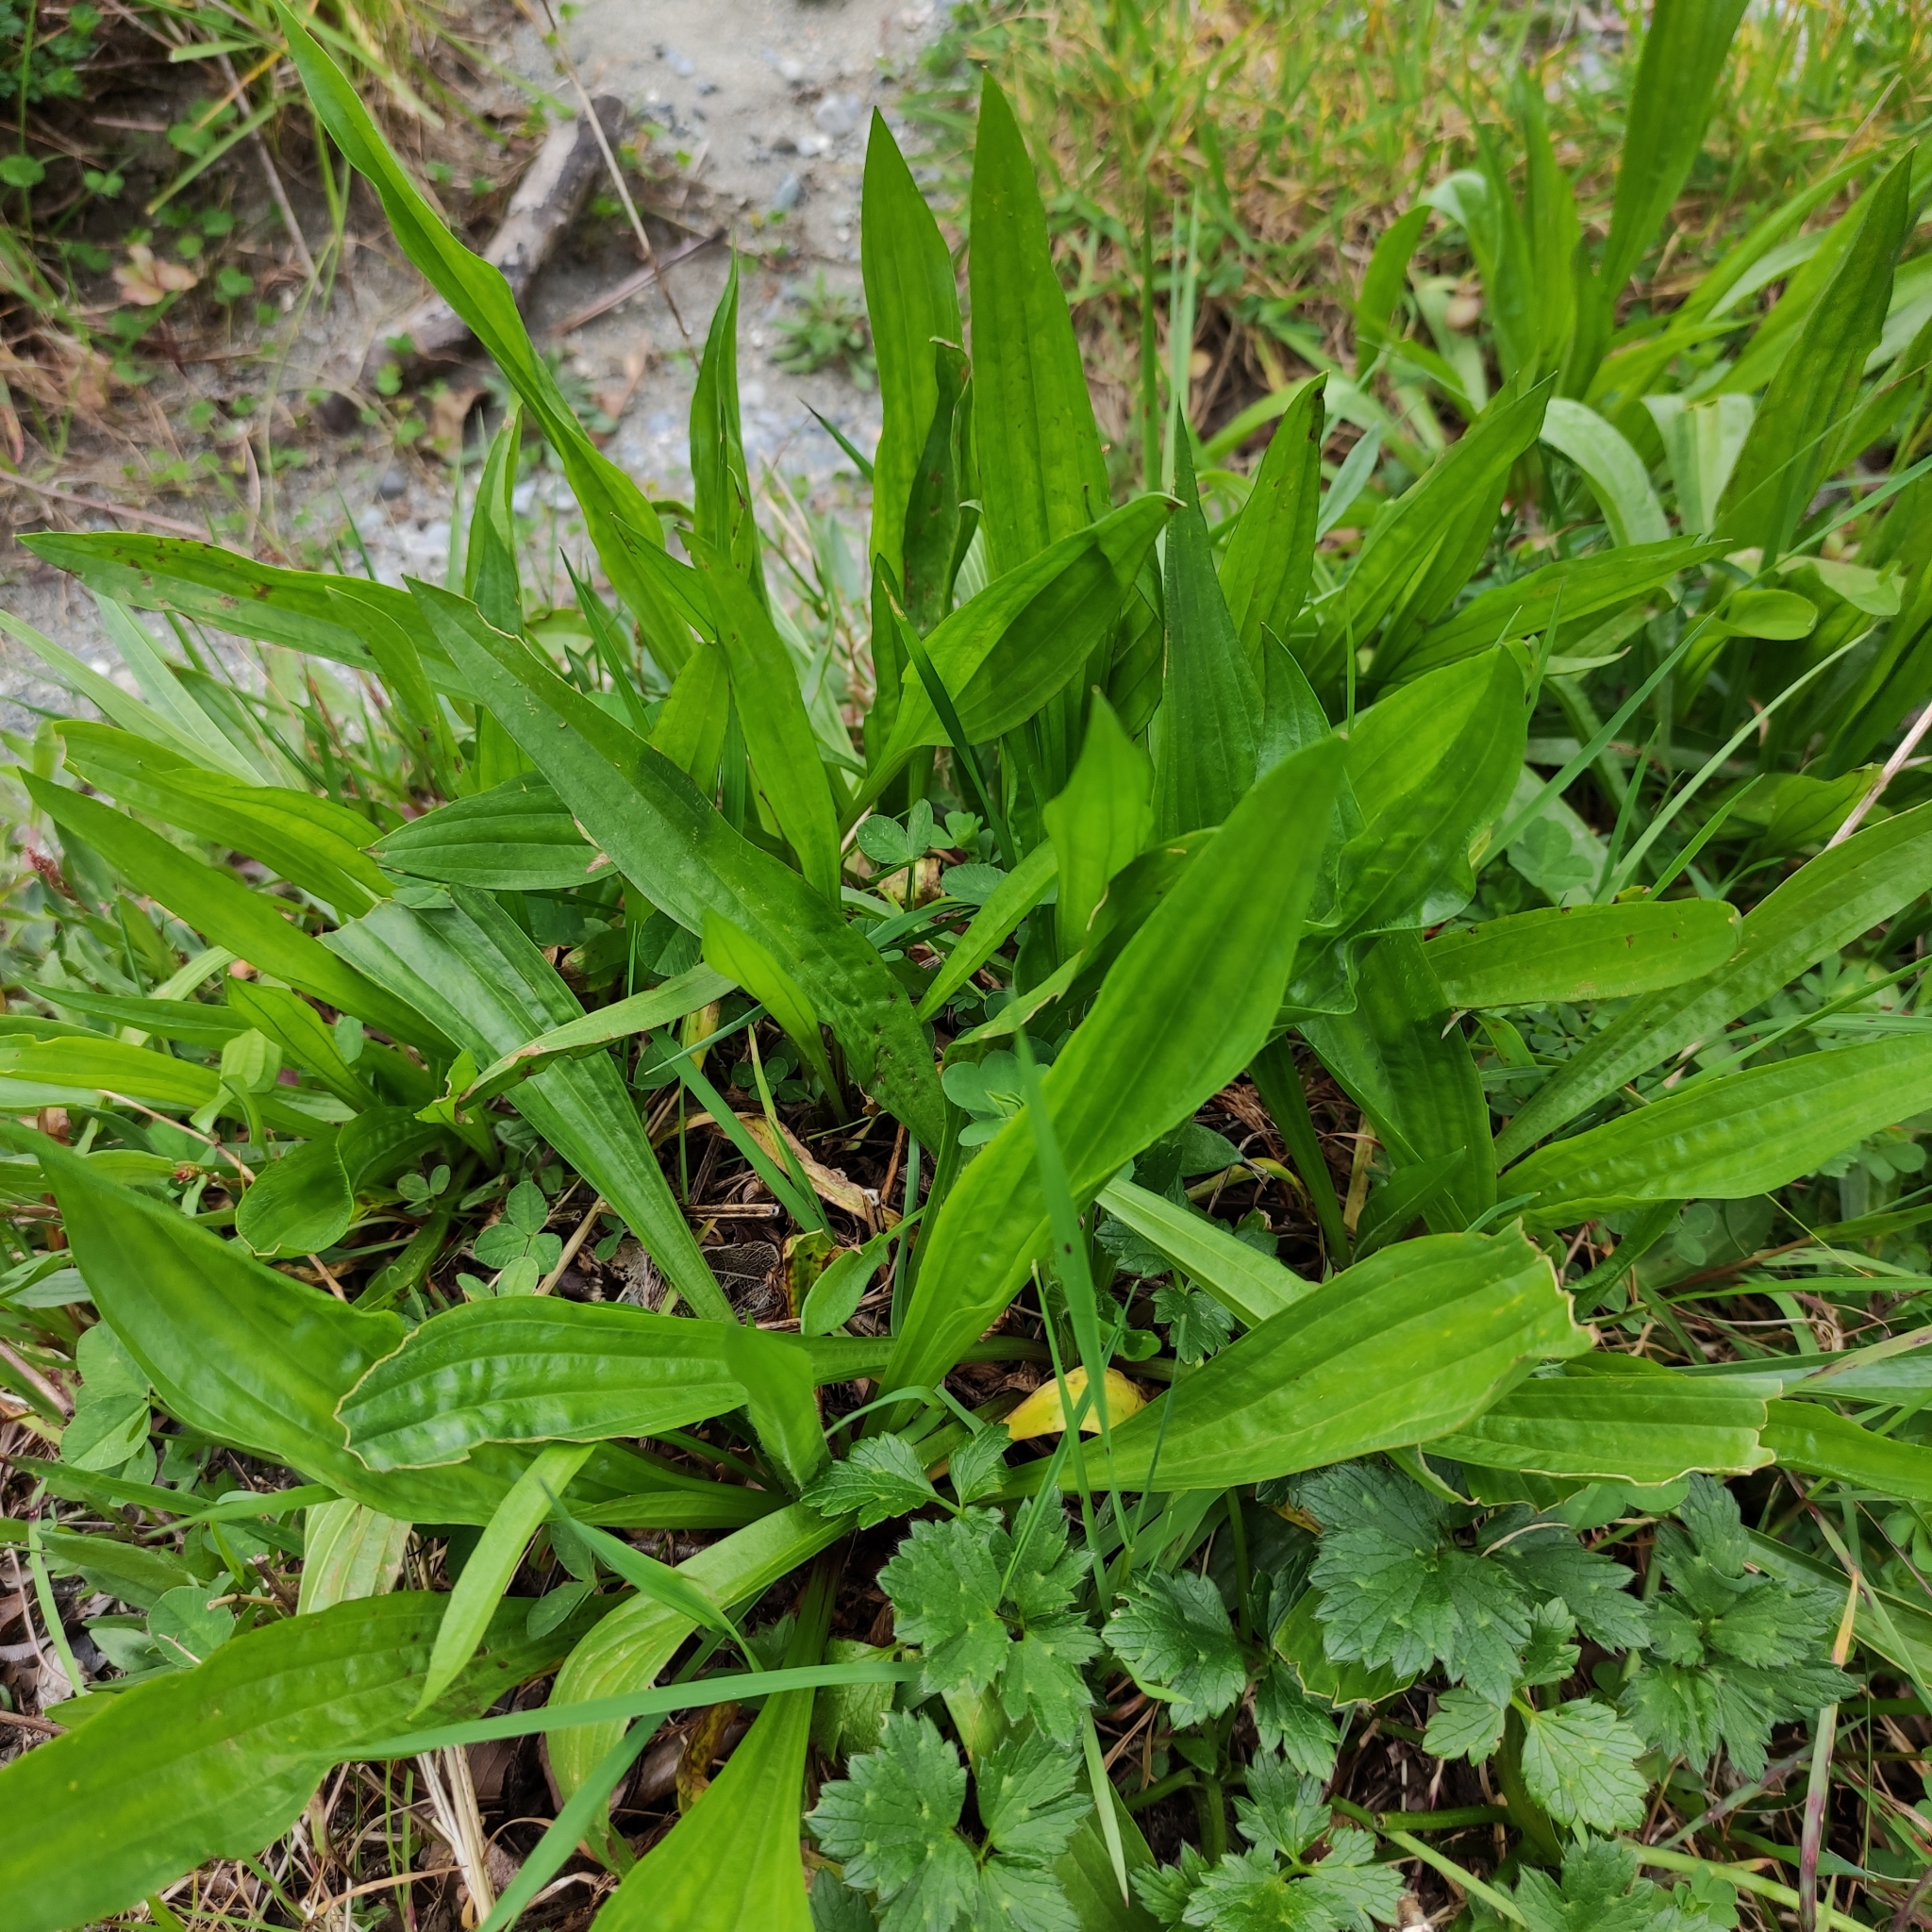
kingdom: Plantae
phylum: Tracheophyta
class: Magnoliopsida
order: Lamiales
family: Plantaginaceae
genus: Plantago
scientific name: Plantago lanceolata
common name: Ribwort plantain
